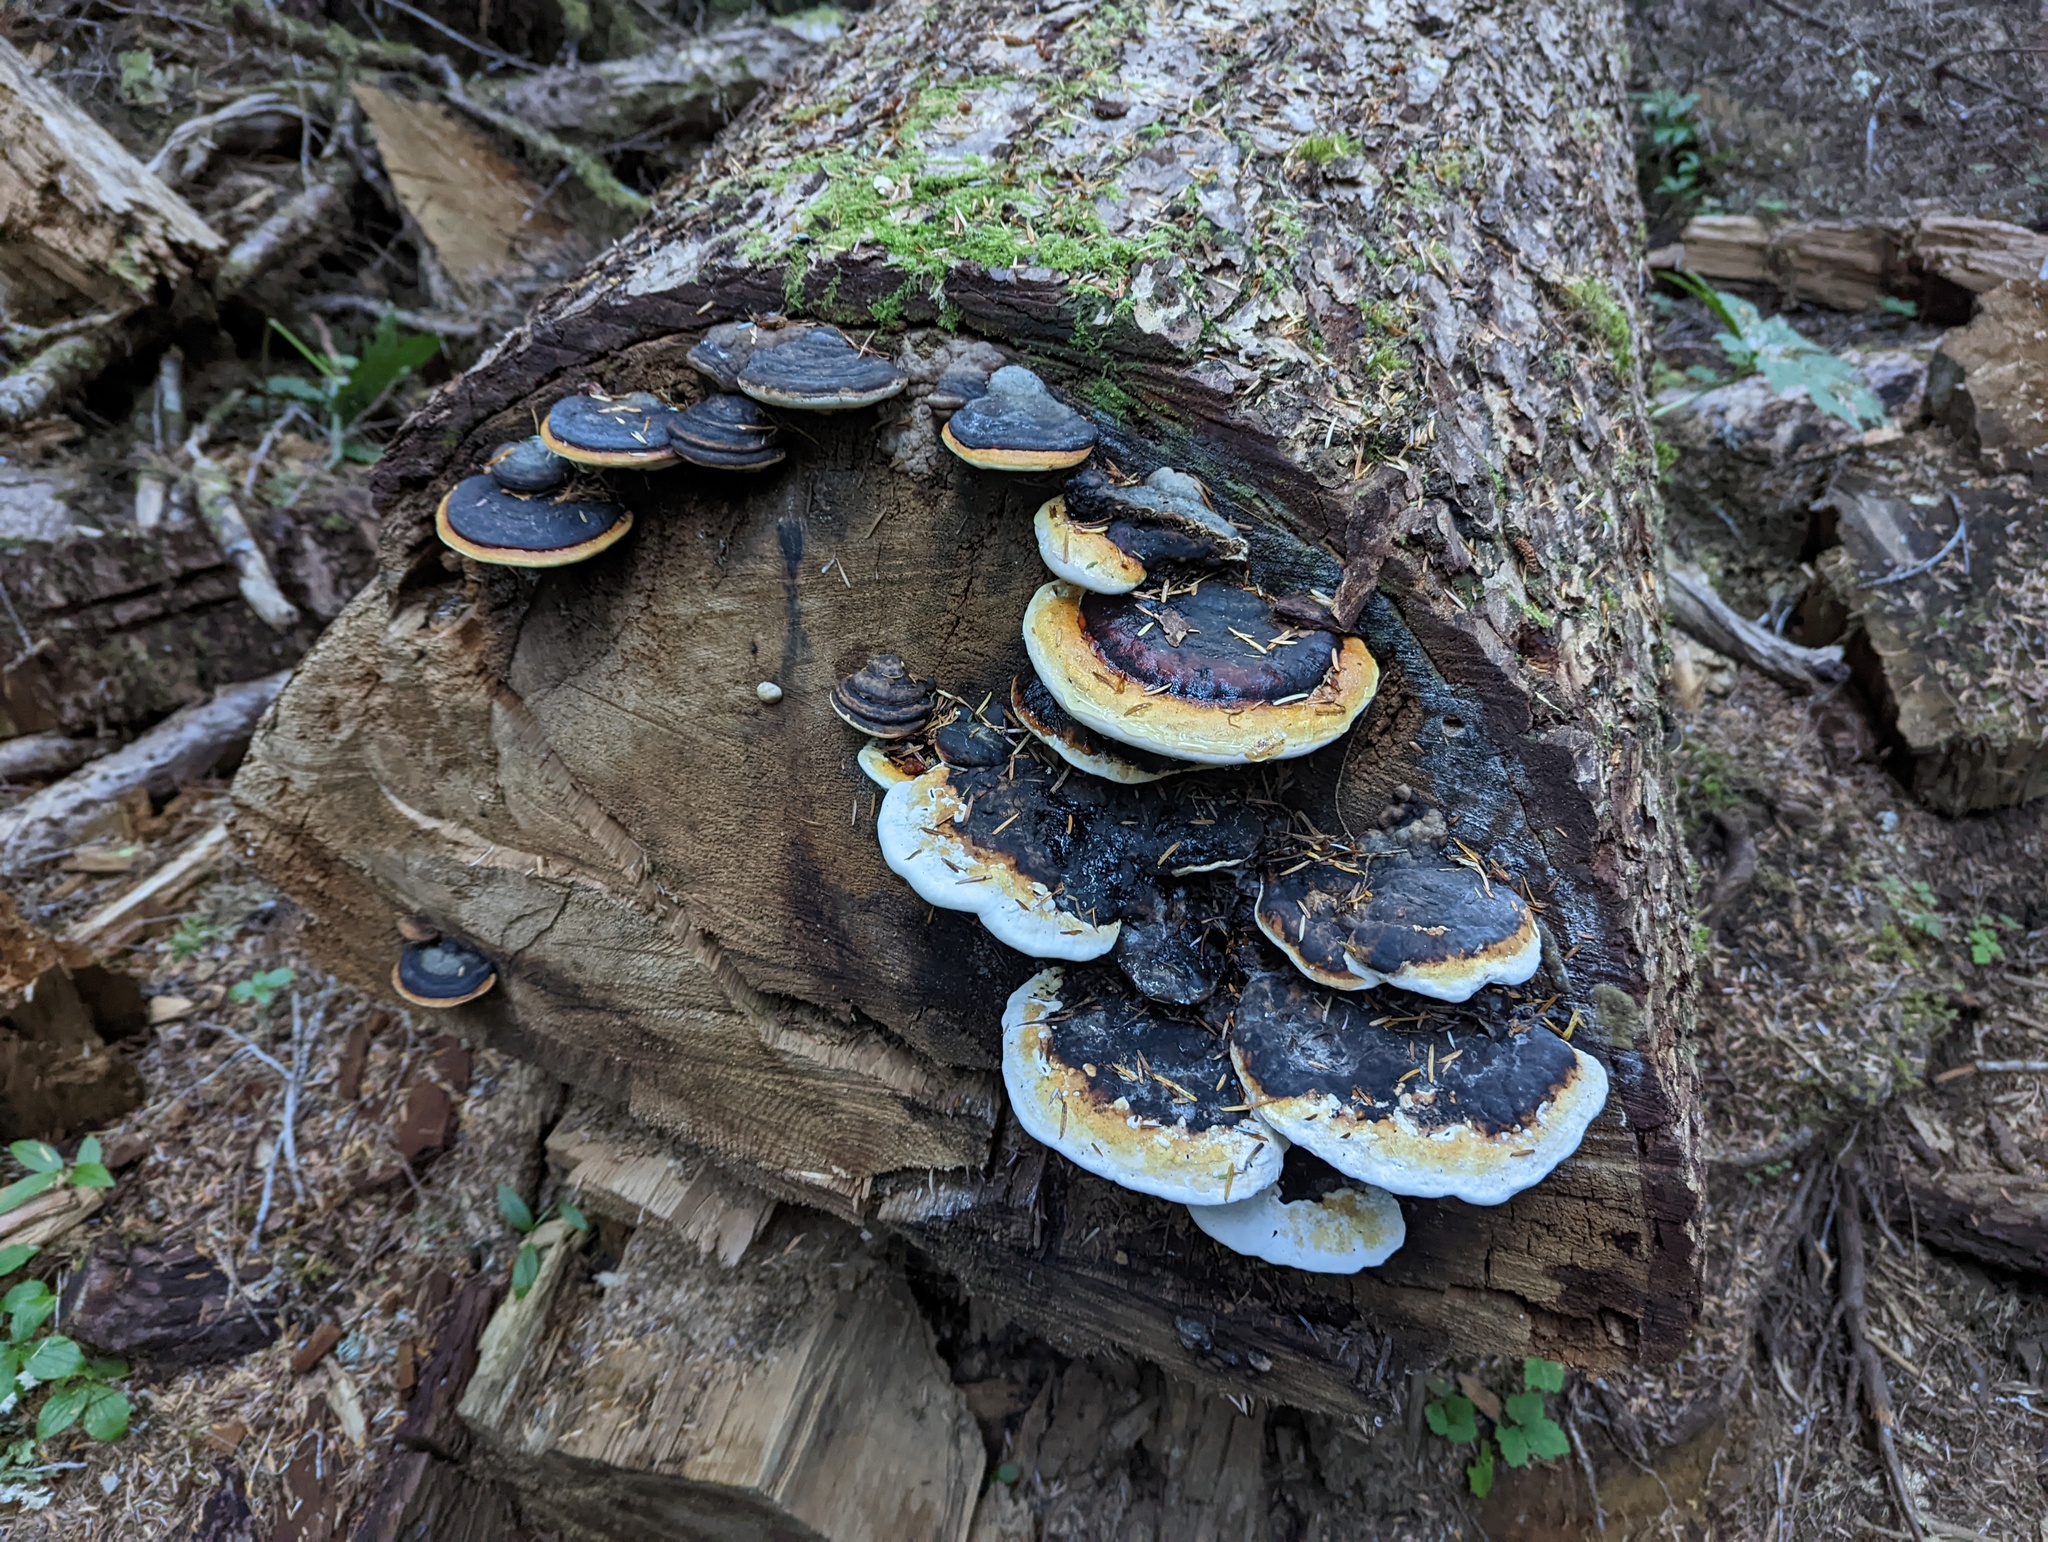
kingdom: Fungi
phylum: Basidiomycota
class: Agaricomycetes
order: Polyporales
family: Fomitopsidaceae
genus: Fomitopsis
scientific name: Fomitopsis mounceae
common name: Northern red belt
